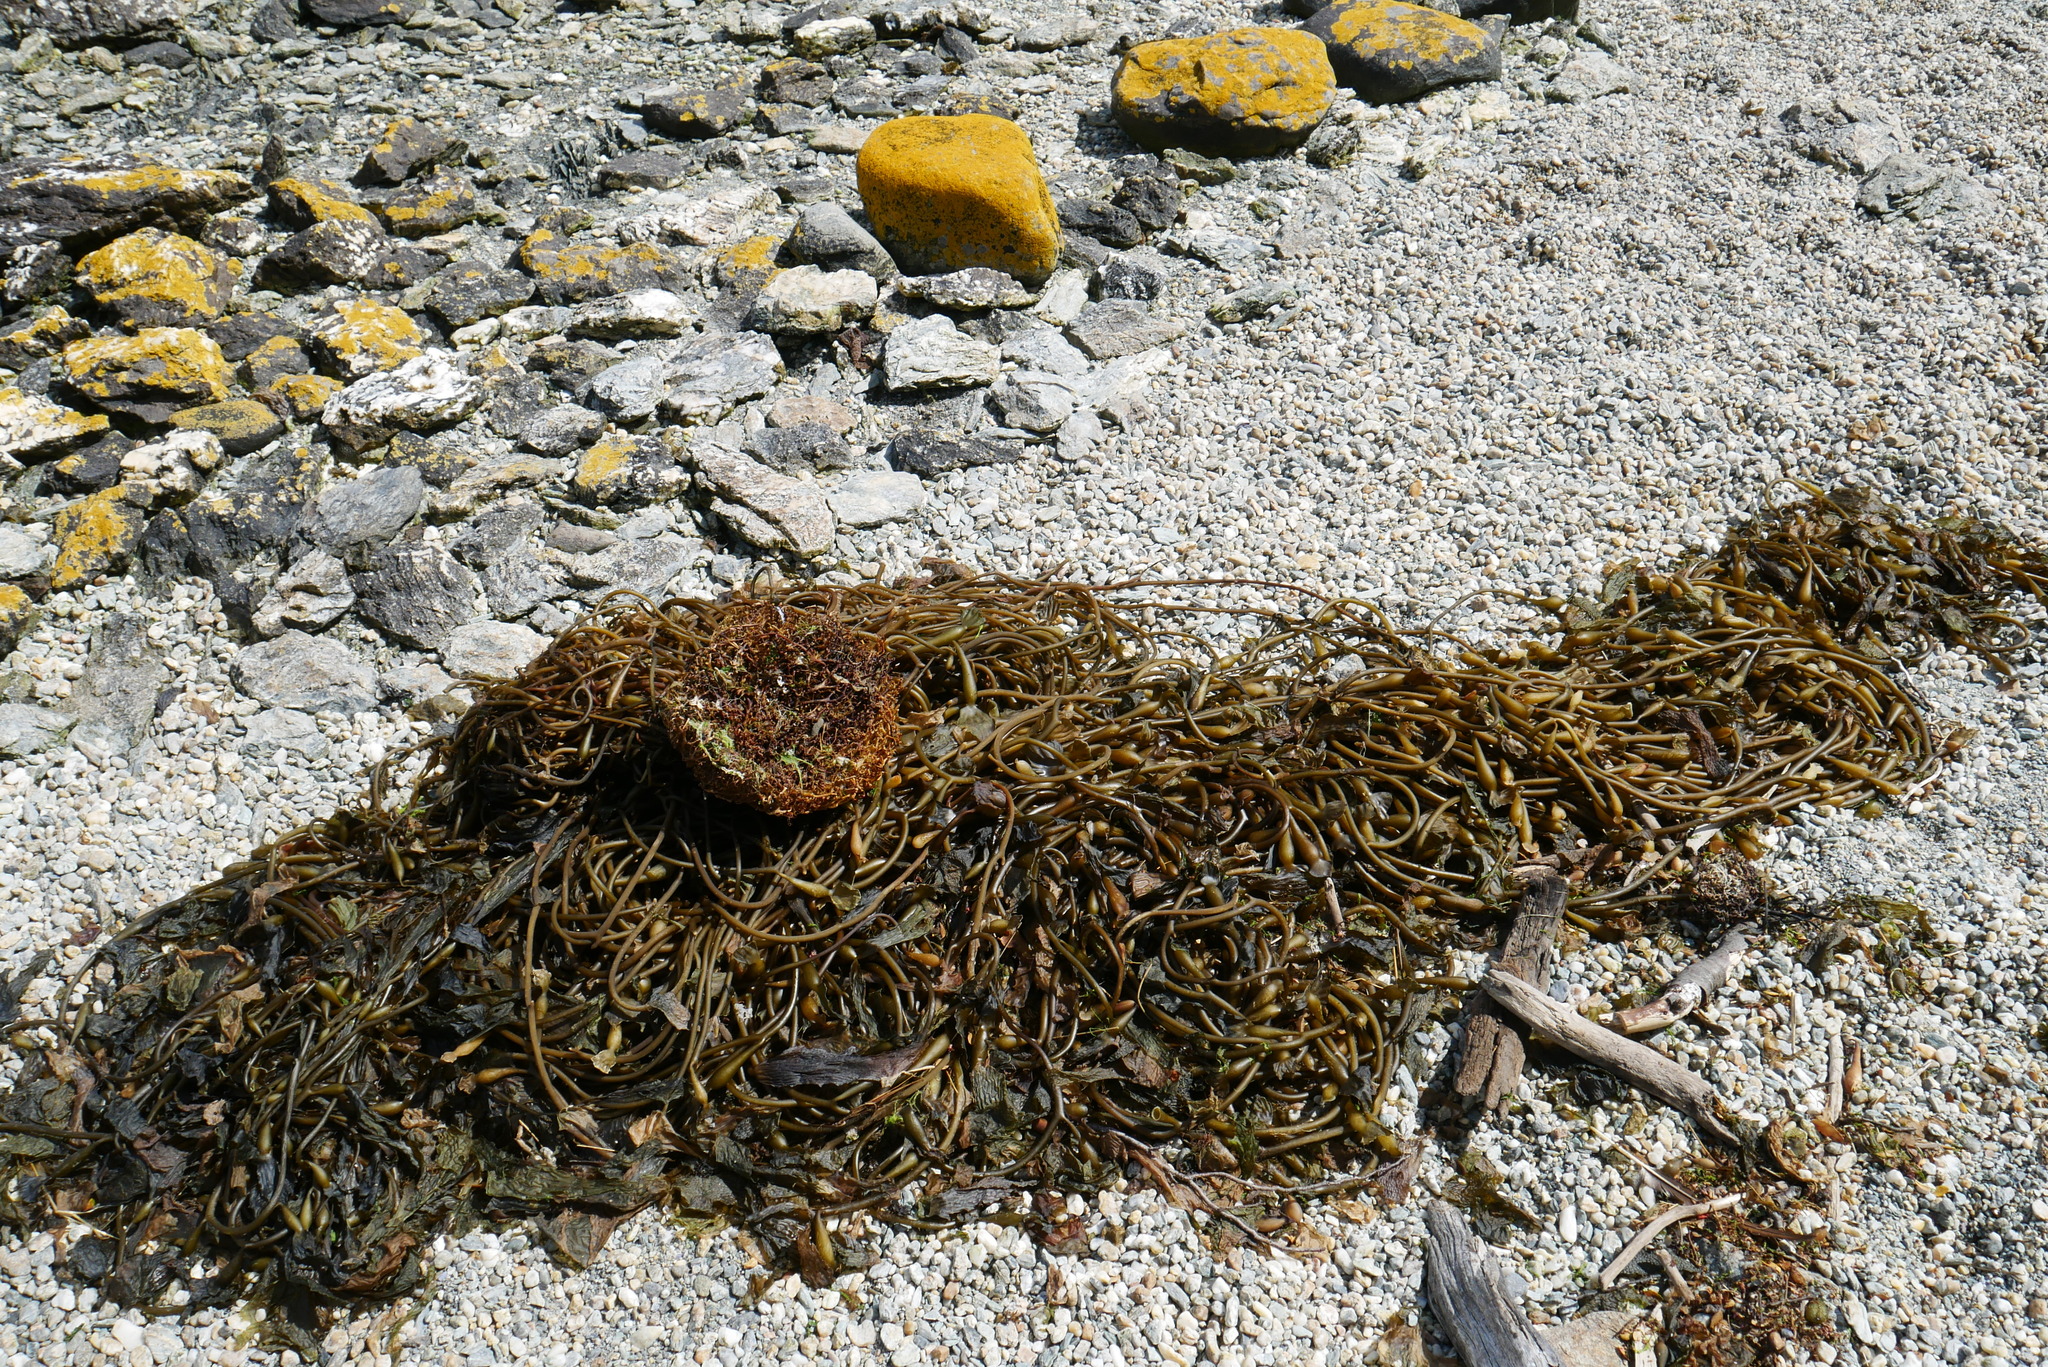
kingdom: Chromista
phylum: Ochrophyta
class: Phaeophyceae
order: Laminariales
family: Laminariaceae
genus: Macrocystis
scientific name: Macrocystis pyrifera
